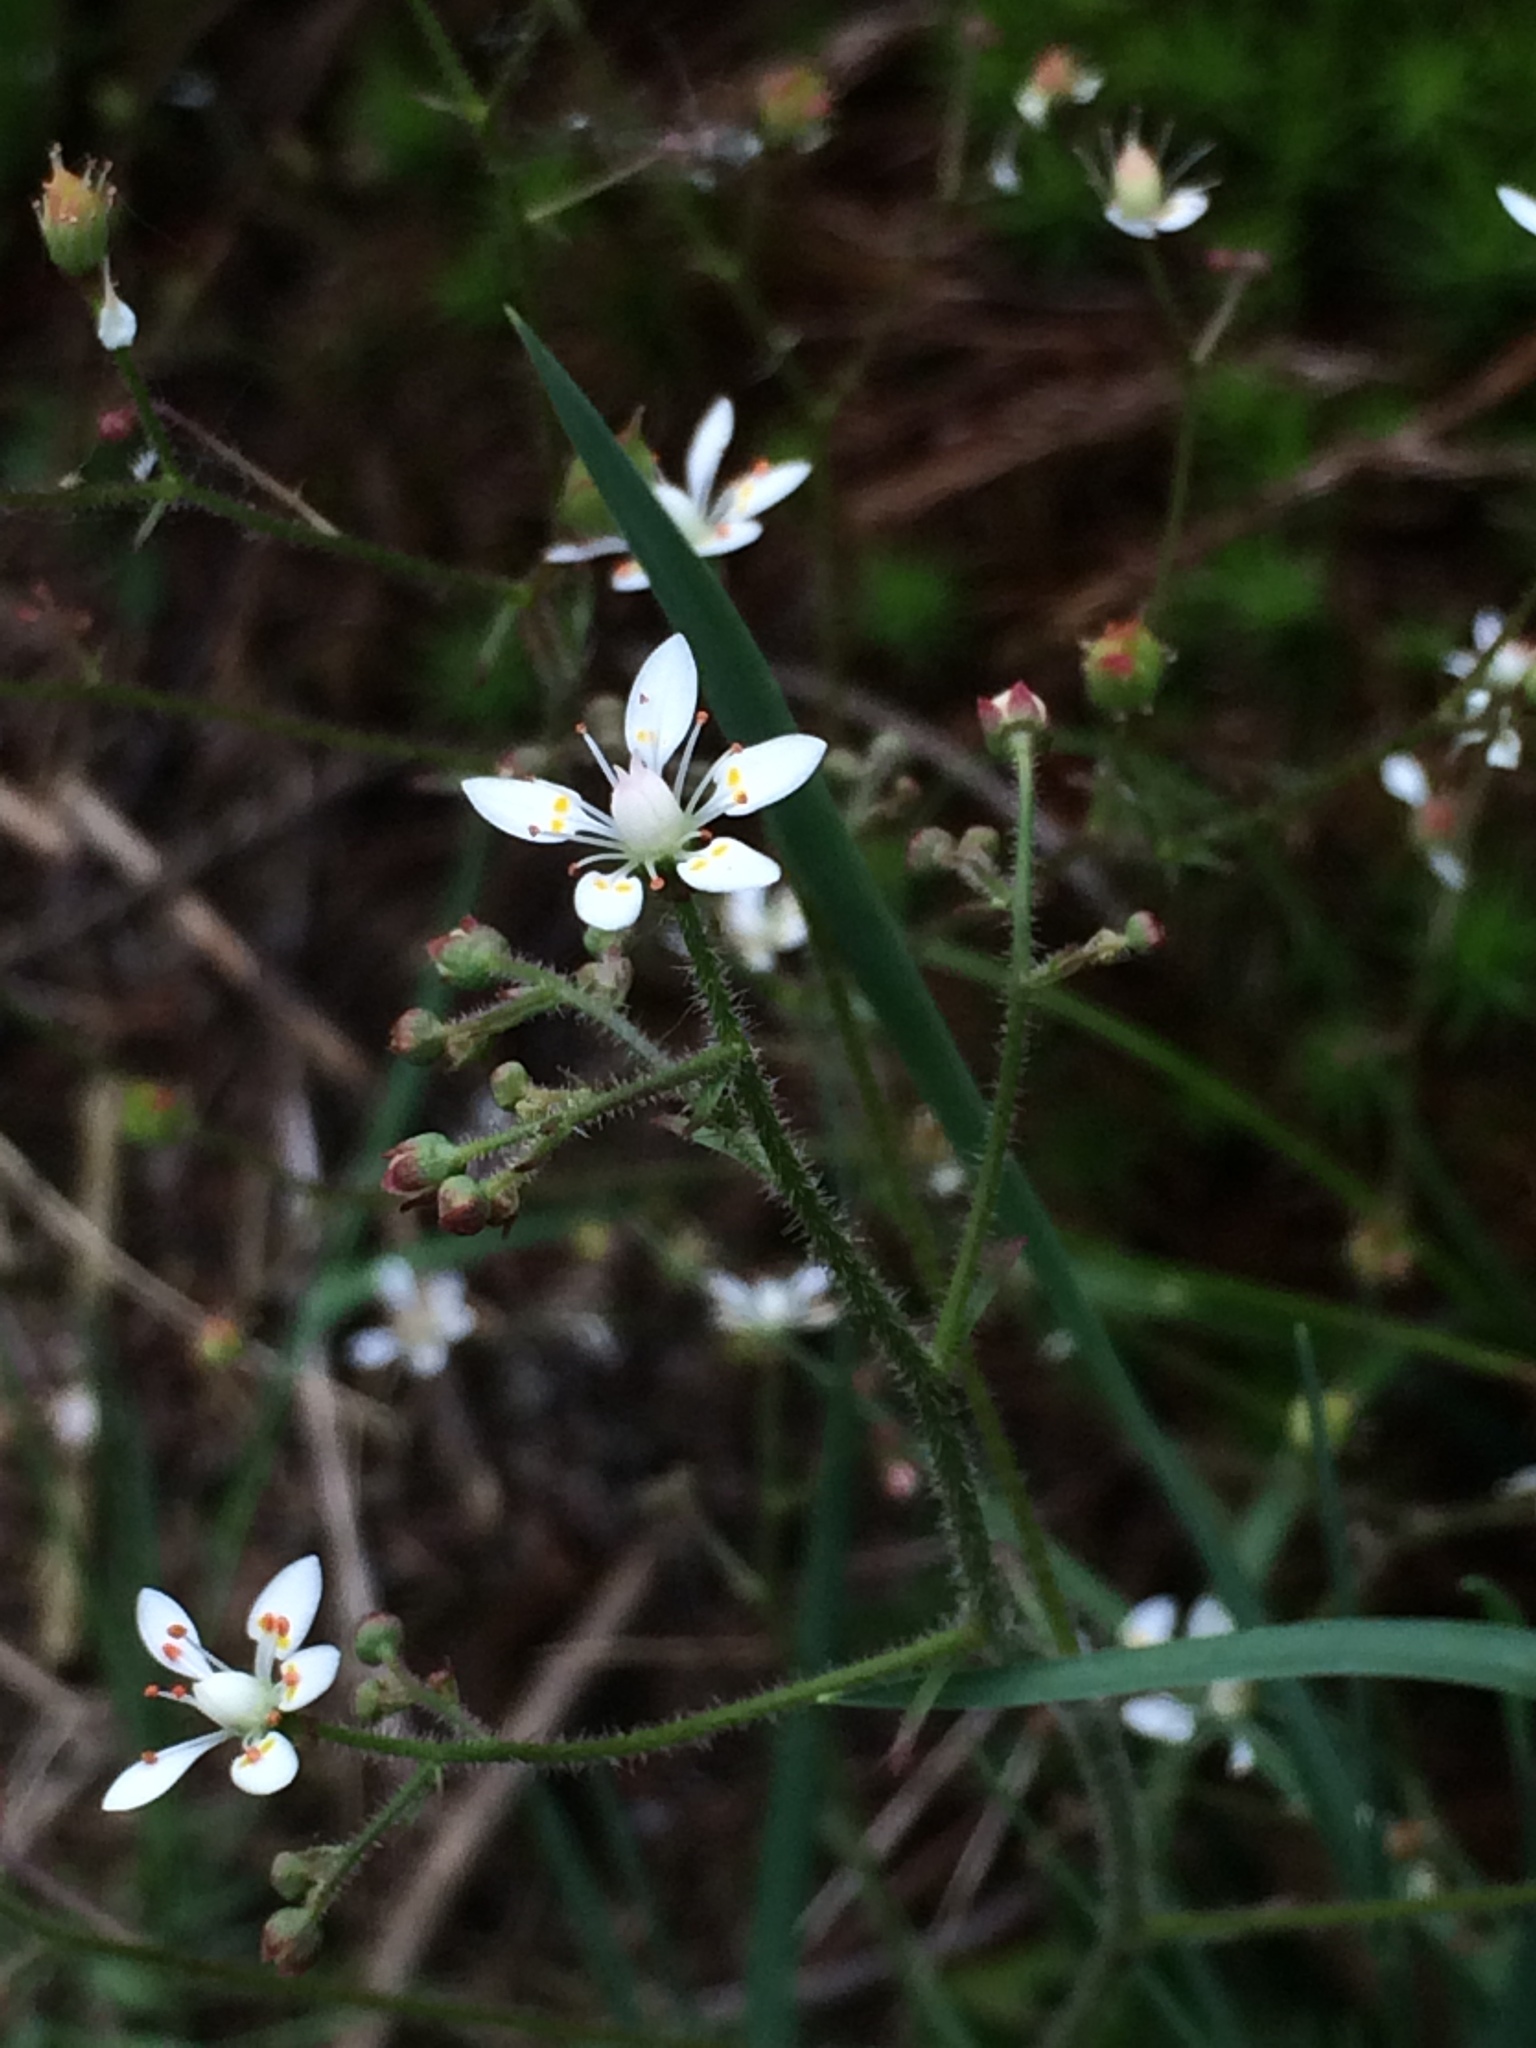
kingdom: Plantae
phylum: Tracheophyta
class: Magnoliopsida
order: Saxifragales
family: Saxifragaceae
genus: Micranthes
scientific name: Micranthes ferruginea
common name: Rusty saxifrage
